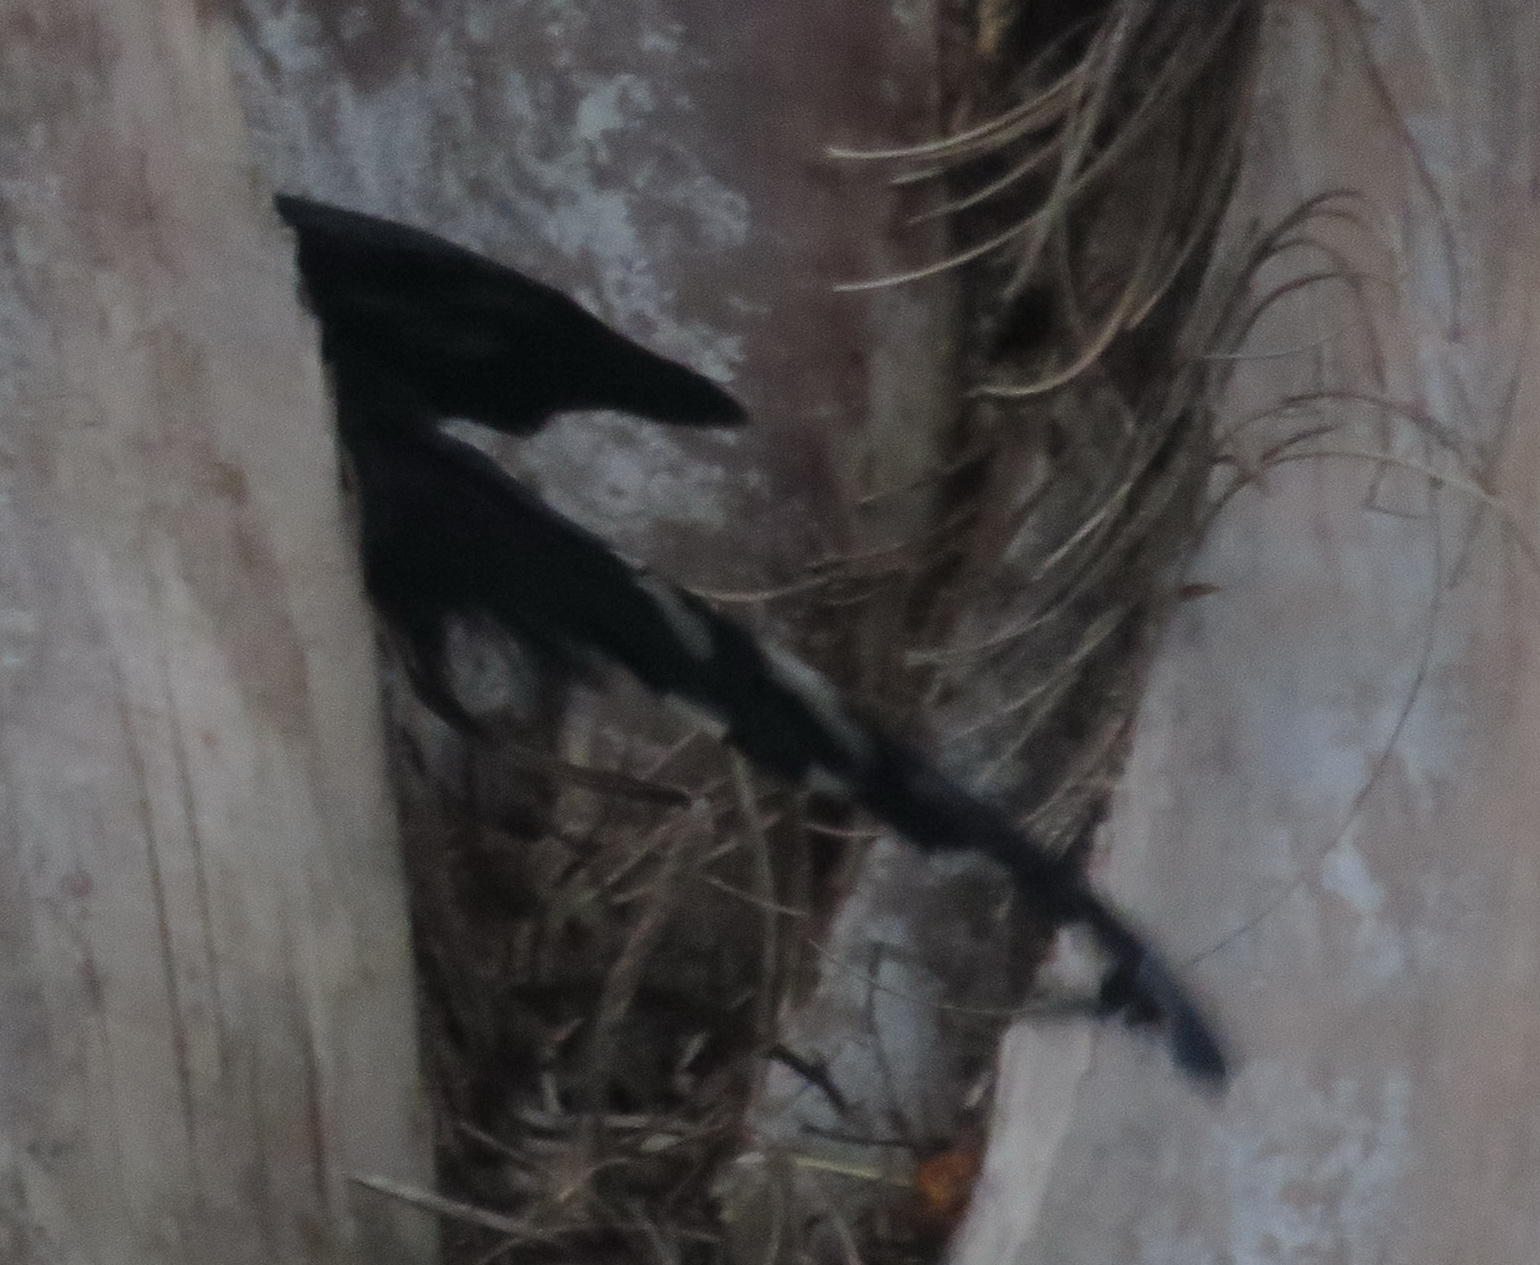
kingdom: Animalia
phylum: Chordata
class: Aves
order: Bucerotiformes
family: Phoeniculidae
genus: Phoeniculus
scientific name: Phoeniculus purpureus
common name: Green woodhoopoe
